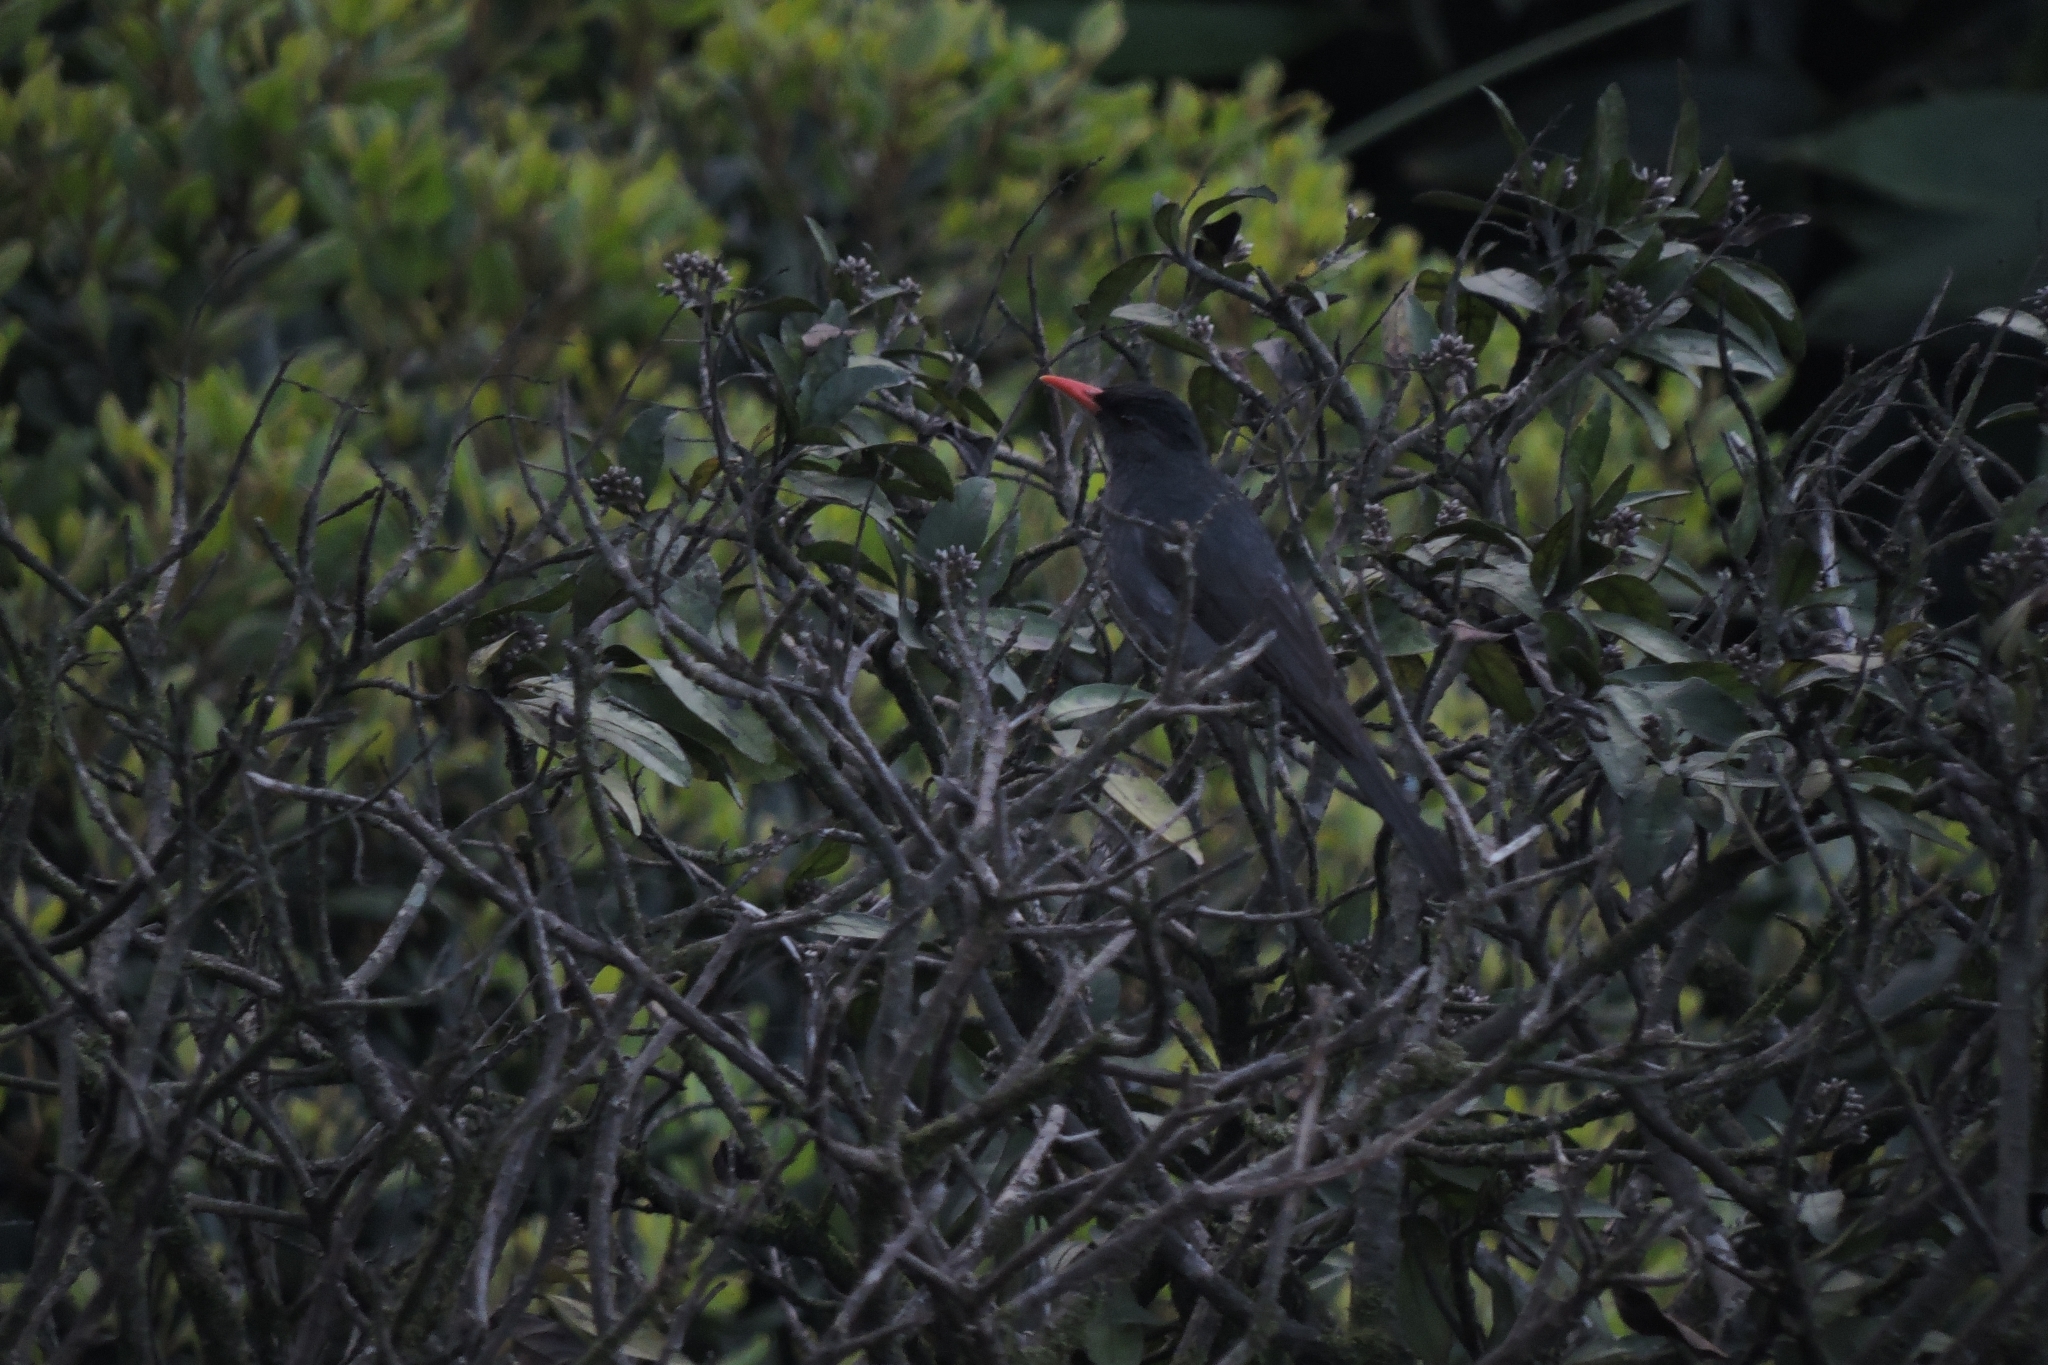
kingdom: Animalia
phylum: Chordata
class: Aves
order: Passeriformes
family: Turdidae
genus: Turdus
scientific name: Turdus simillimus
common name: Indian blackbird
